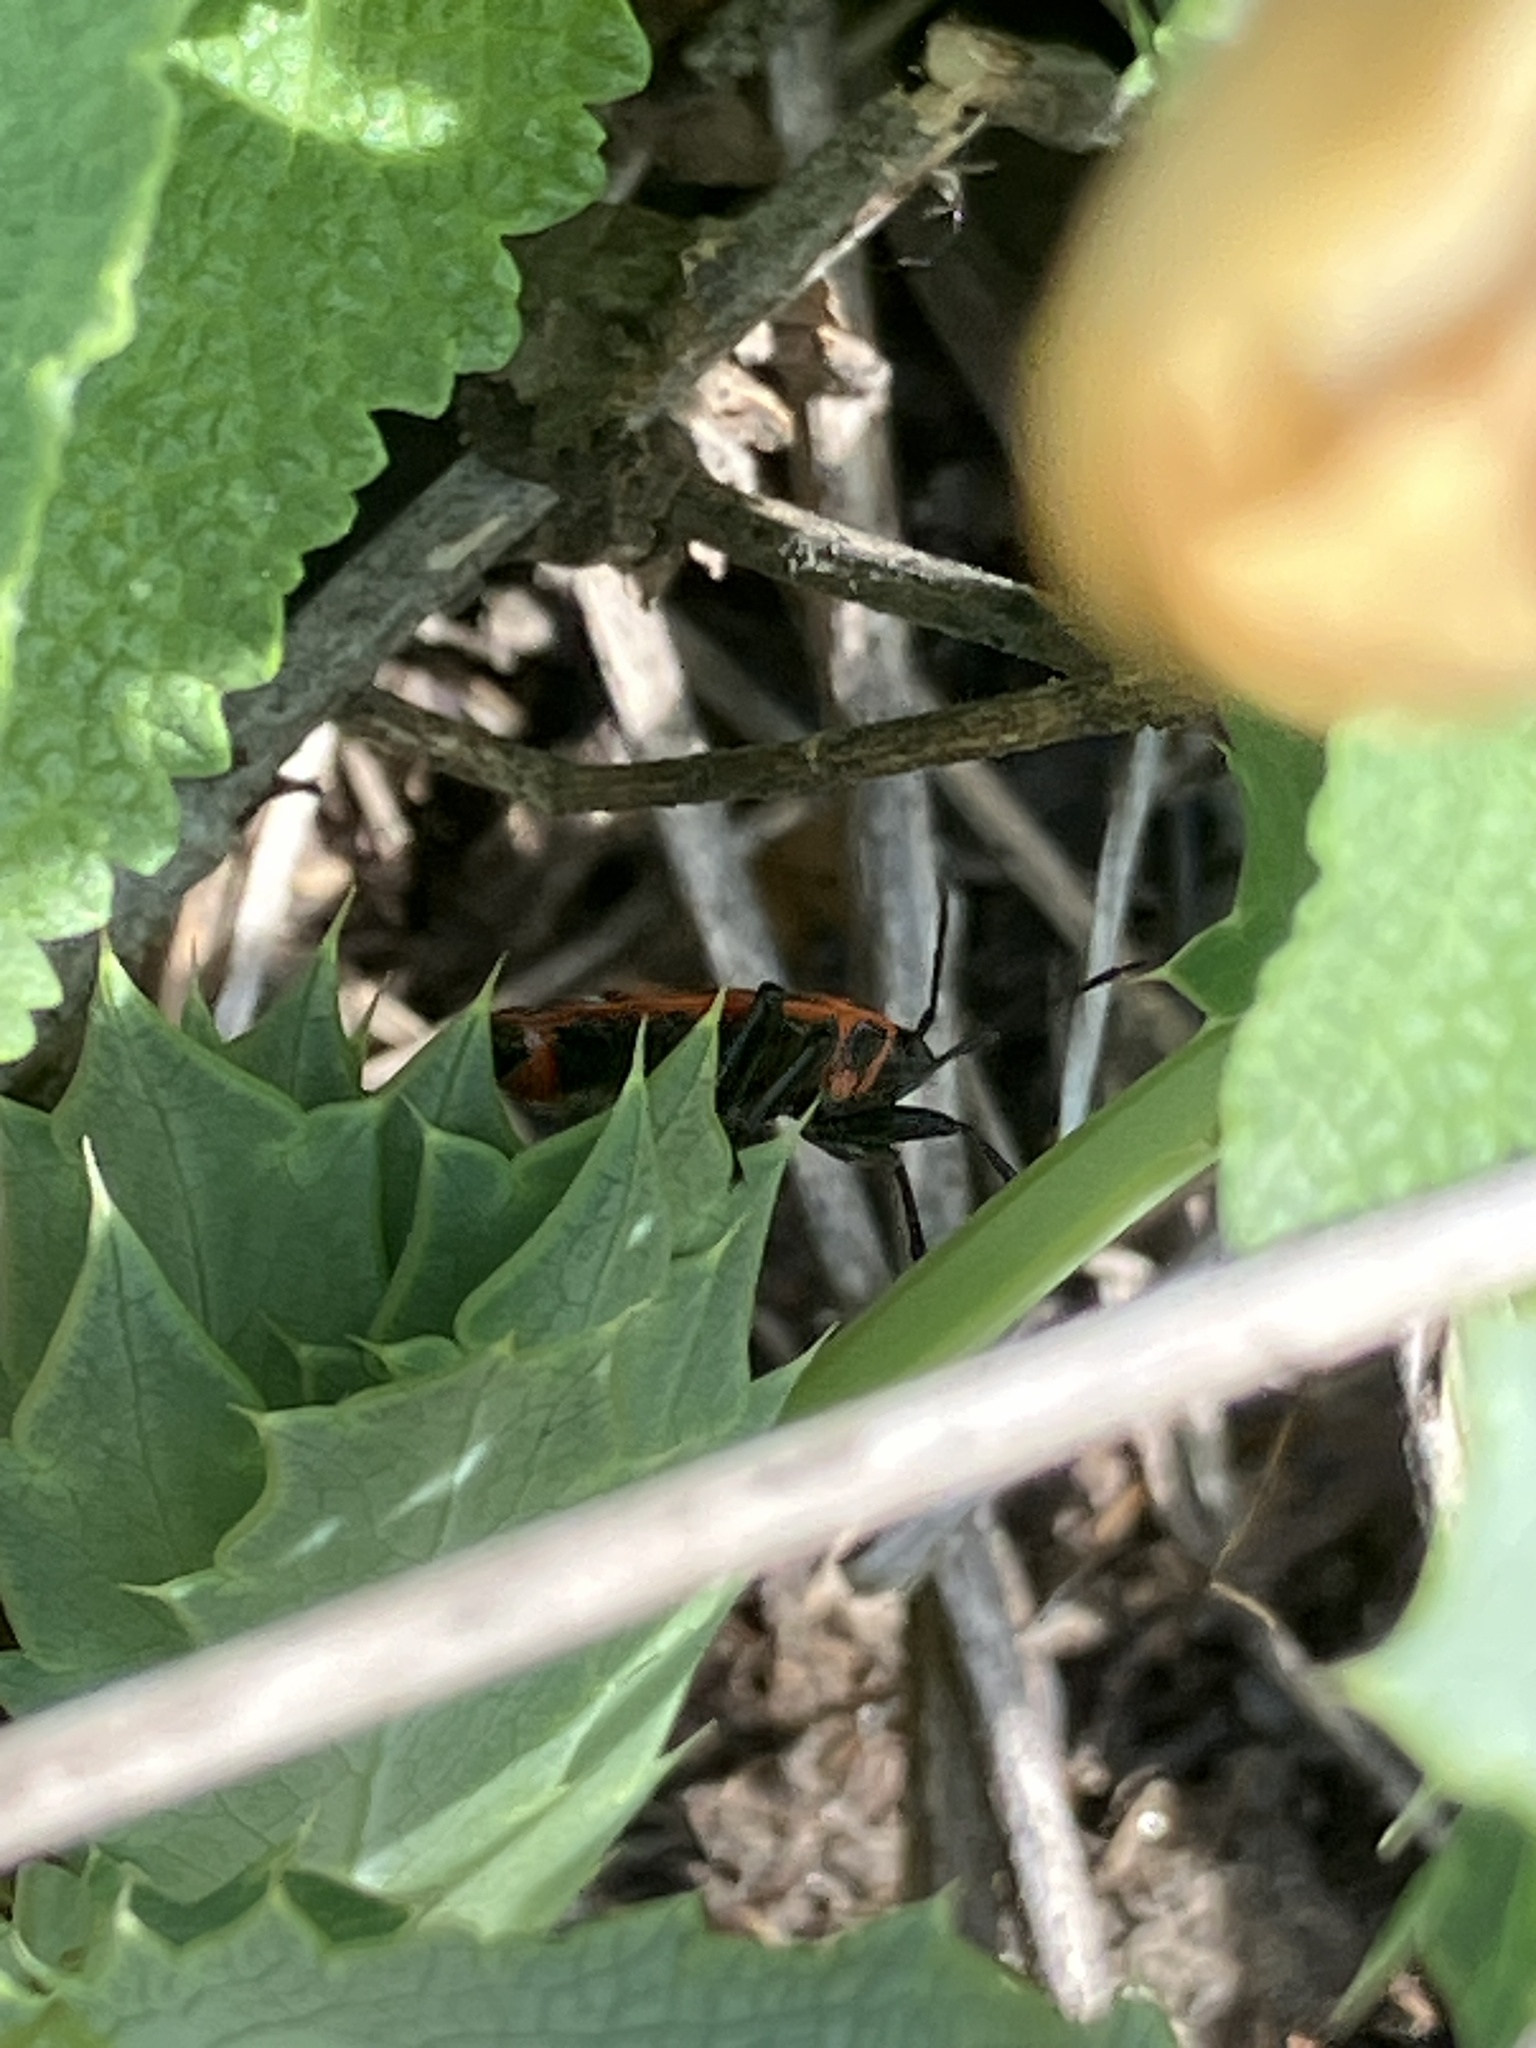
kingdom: Animalia
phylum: Arthropoda
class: Insecta
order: Hemiptera
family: Pyrrhocoridae
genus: Pyrrhocoris
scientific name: Pyrrhocoris apterus
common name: Firebug
